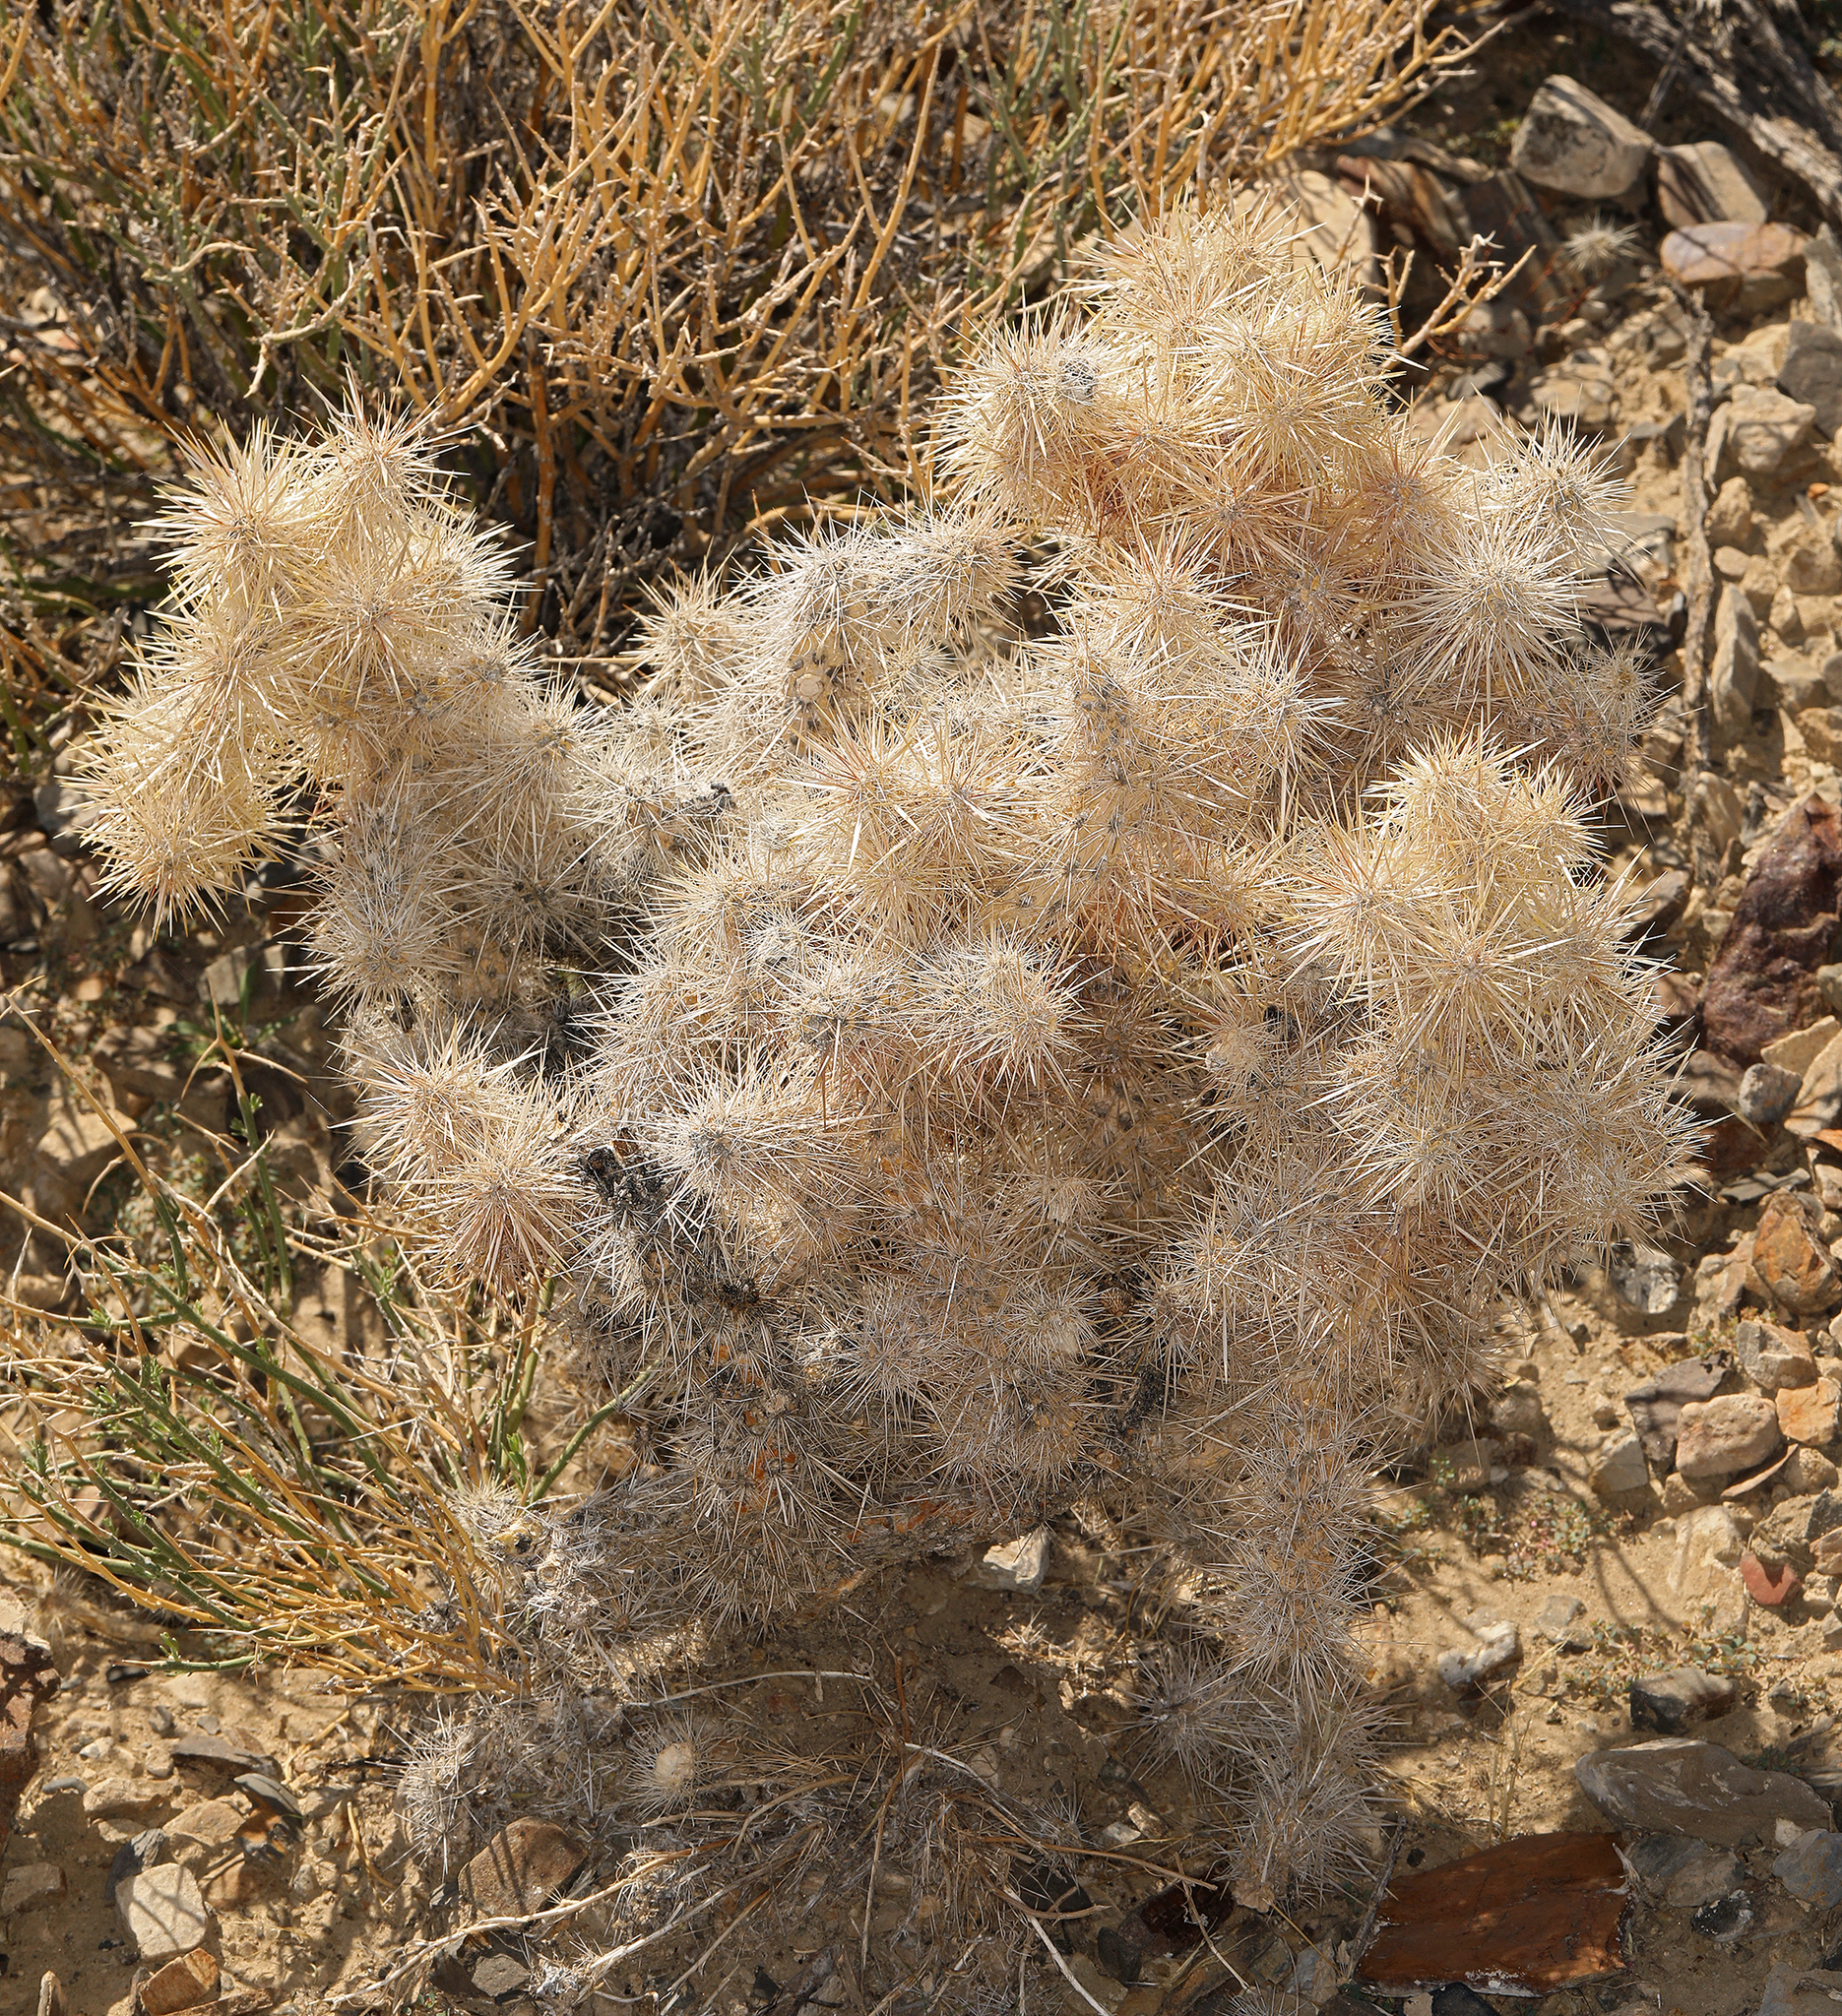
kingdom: Plantae
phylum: Tracheophyta
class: Magnoliopsida
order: Caryophyllales
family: Cactaceae
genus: Cylindropuntia
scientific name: Cylindropuntia echinocarpa
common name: Ground cholla
